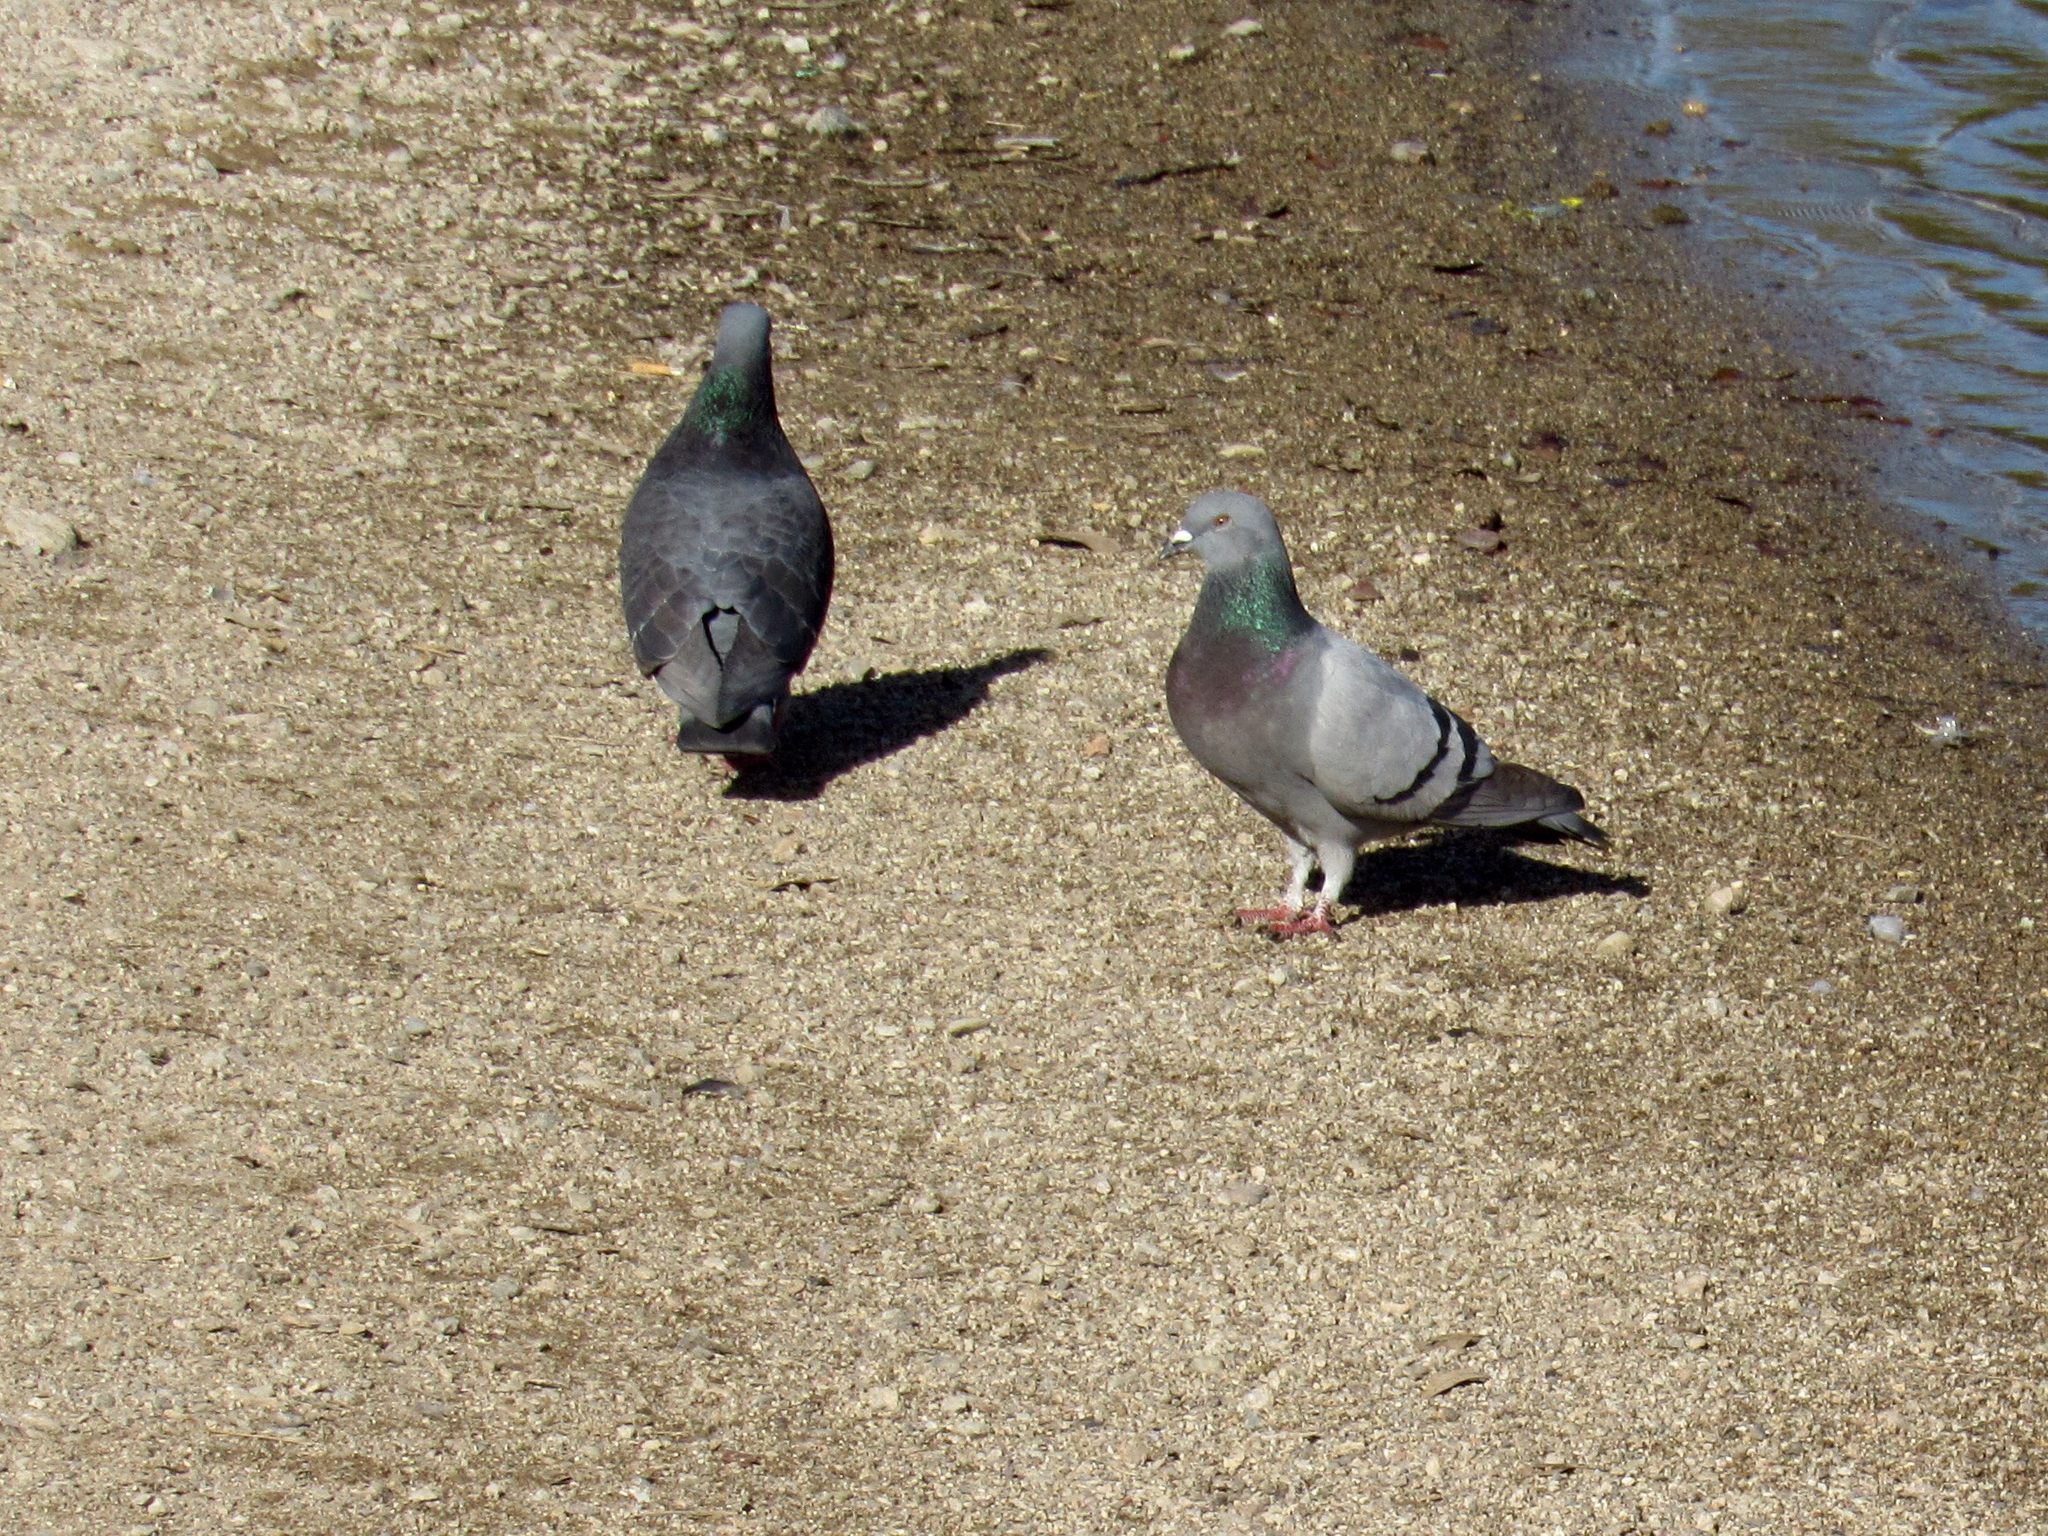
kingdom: Animalia
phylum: Chordata
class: Aves
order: Columbiformes
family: Columbidae
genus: Columba
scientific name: Columba livia
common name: Rock pigeon
